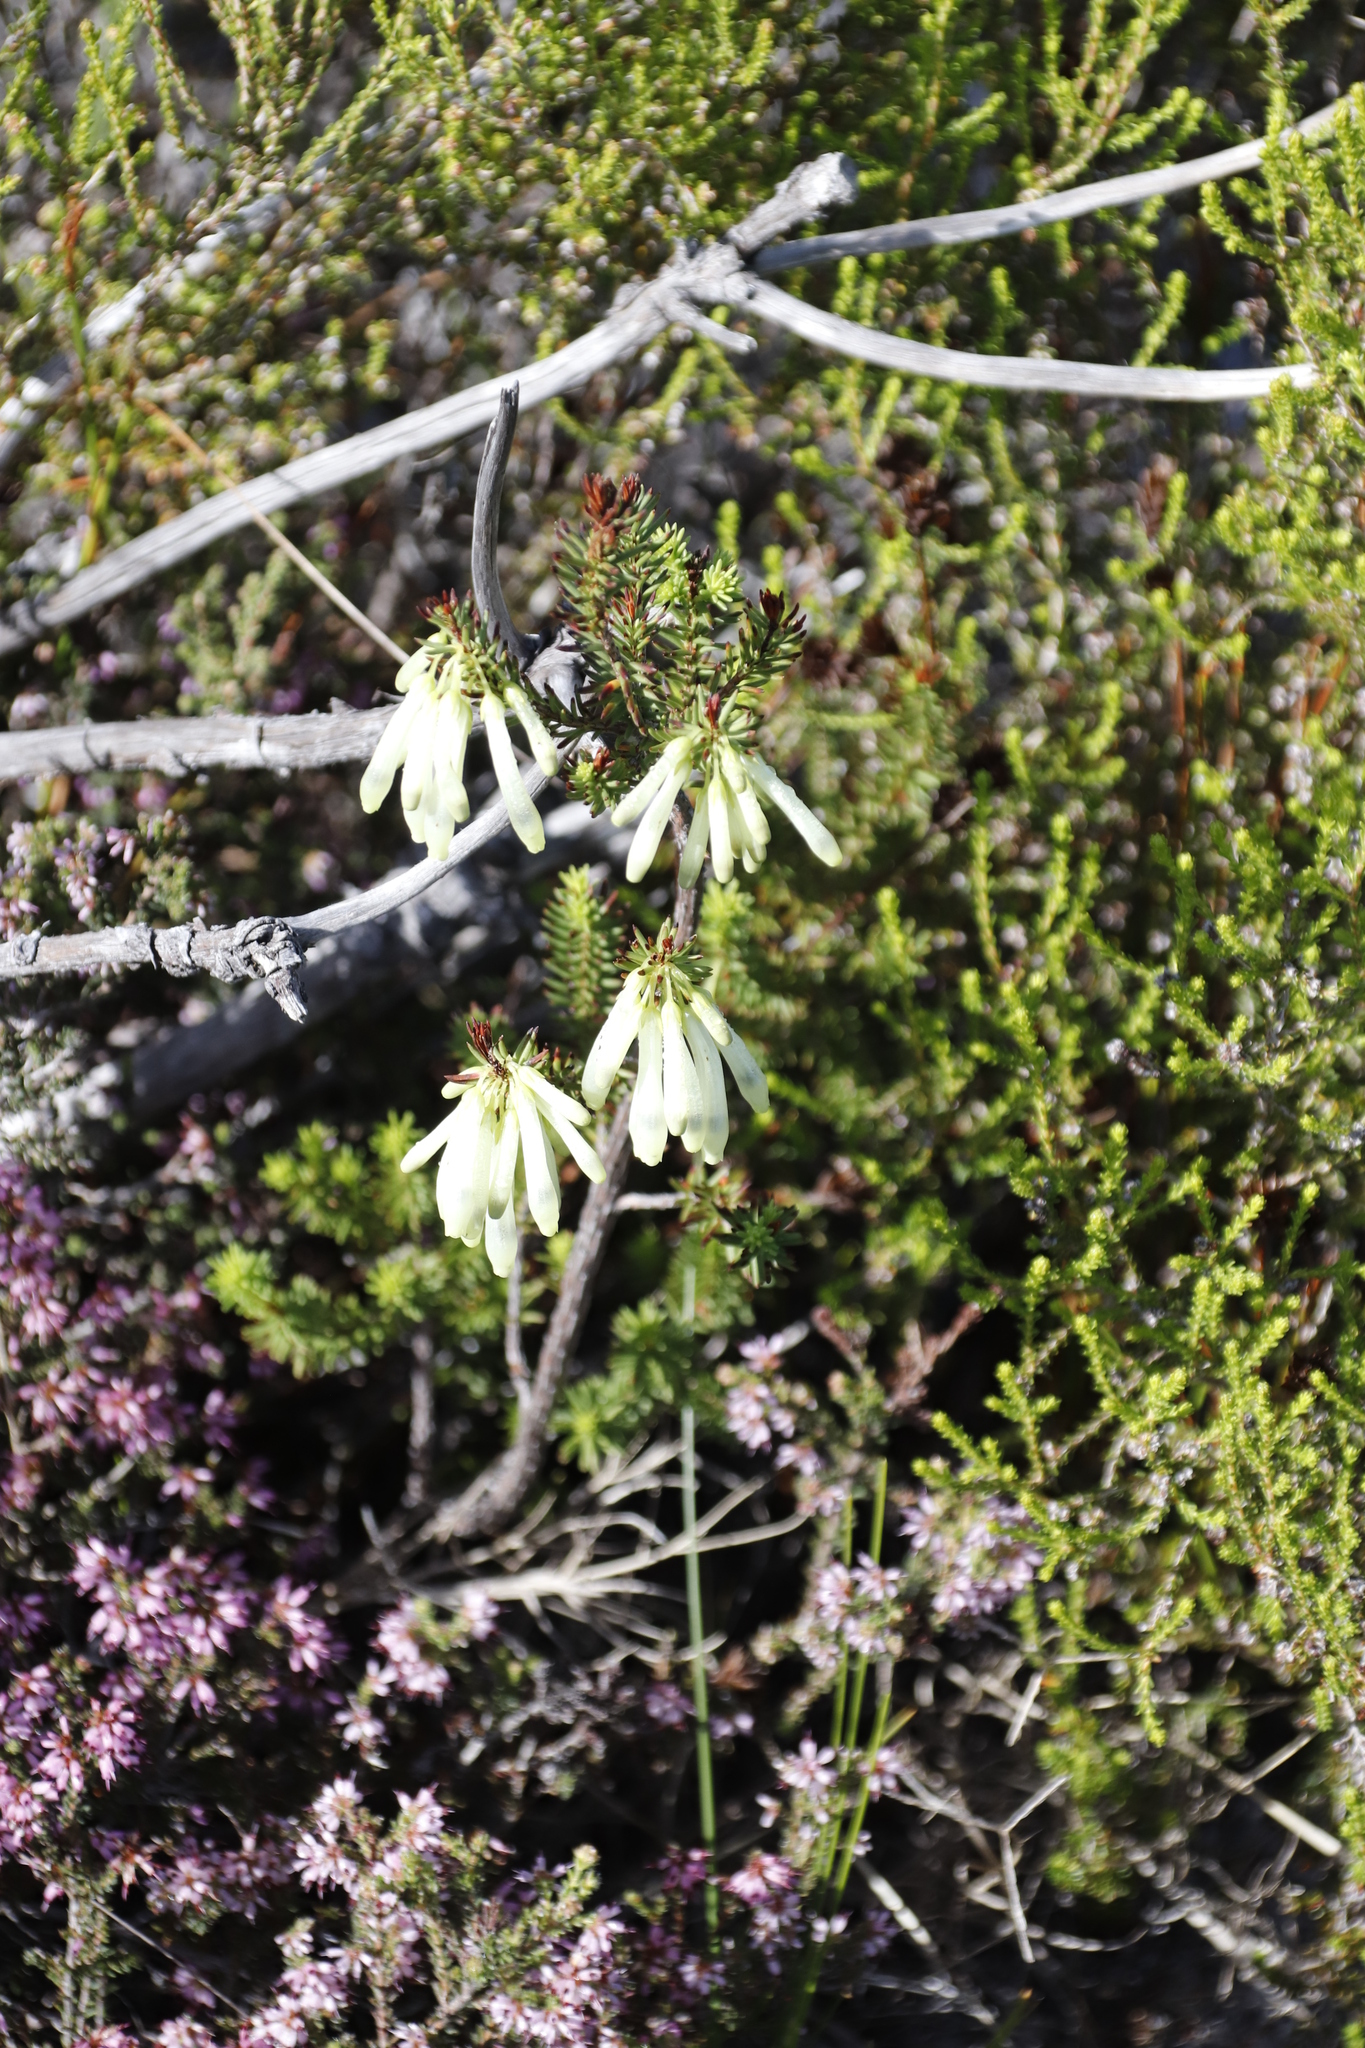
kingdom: Plantae
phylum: Tracheophyta
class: Magnoliopsida
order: Ericales
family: Ericaceae
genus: Erica
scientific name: Erica mammosa
